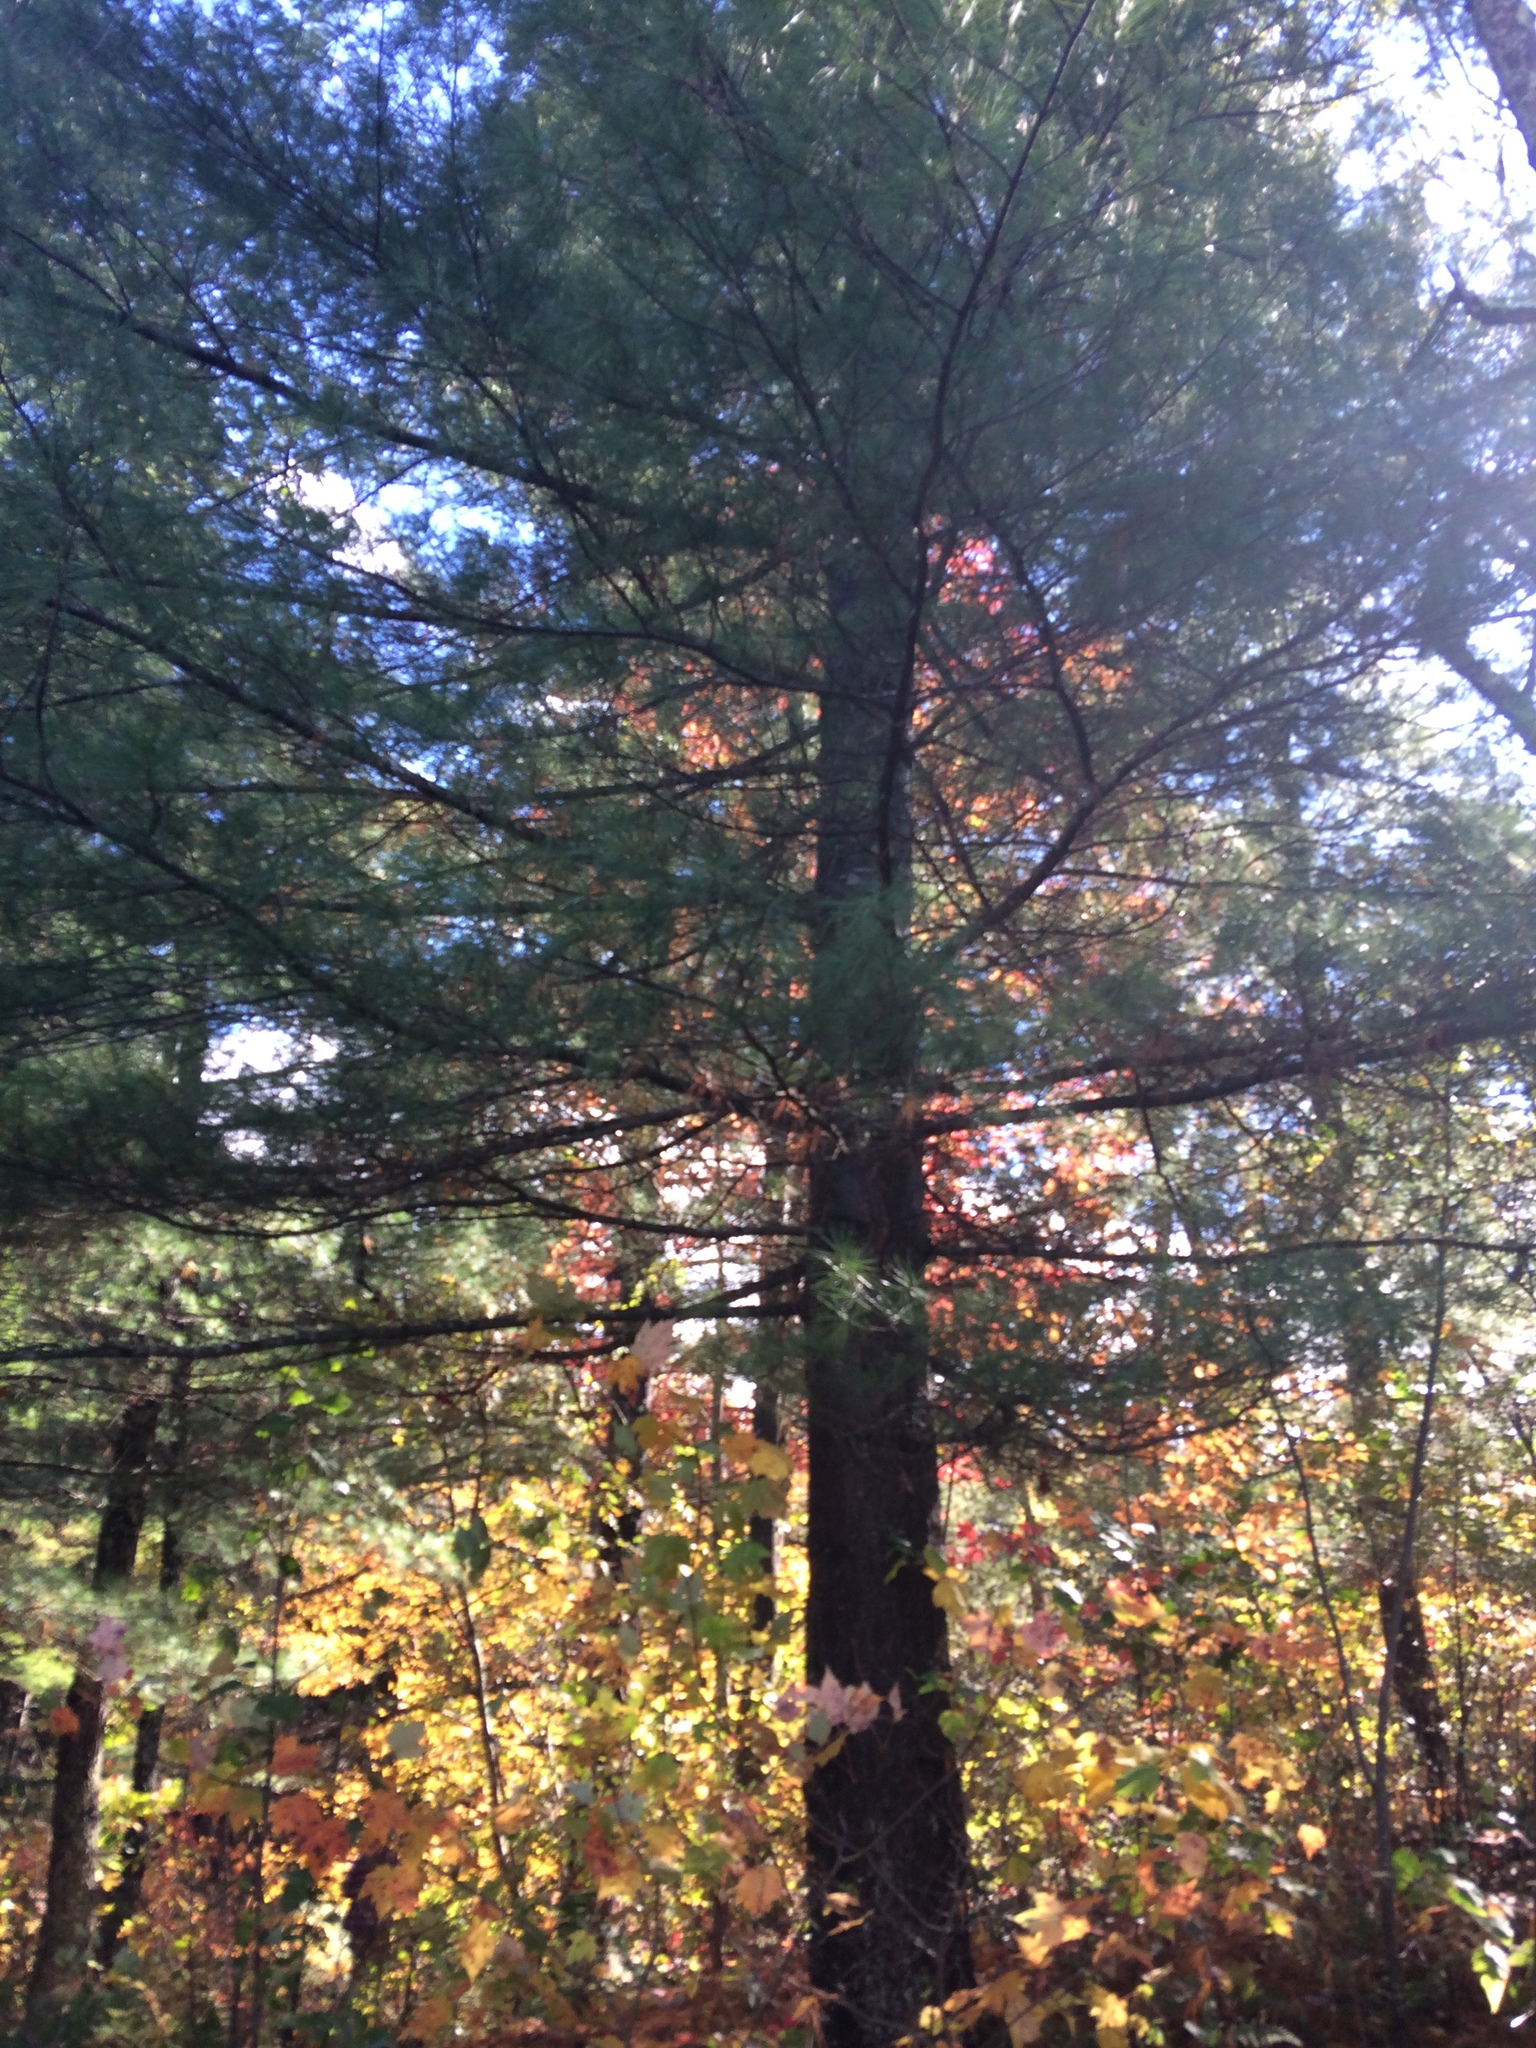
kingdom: Plantae
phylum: Tracheophyta
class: Pinopsida
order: Pinales
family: Pinaceae
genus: Pinus
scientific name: Pinus strobus
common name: Weymouth pine
